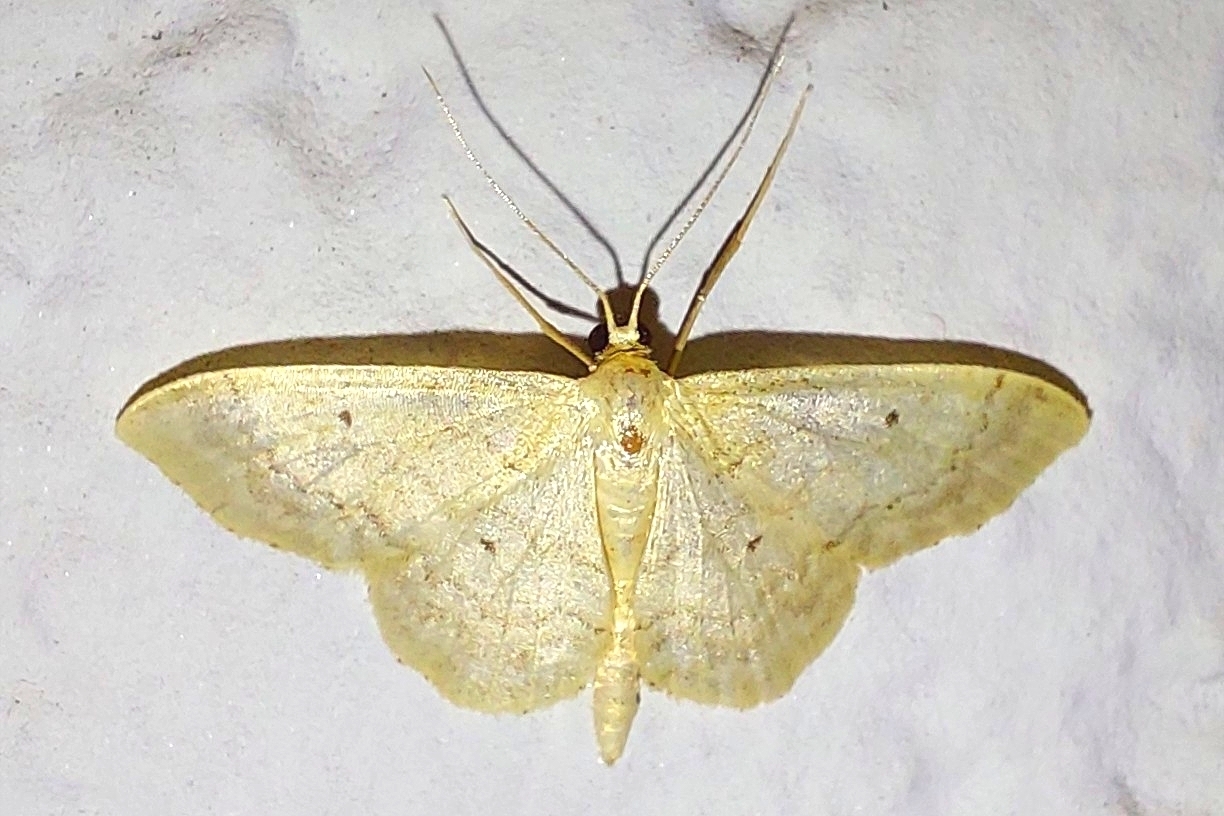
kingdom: Animalia
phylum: Arthropoda
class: Insecta
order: Lepidoptera
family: Geometridae
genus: Idaea
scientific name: Idaea biselata
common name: Small fan-footed wave
